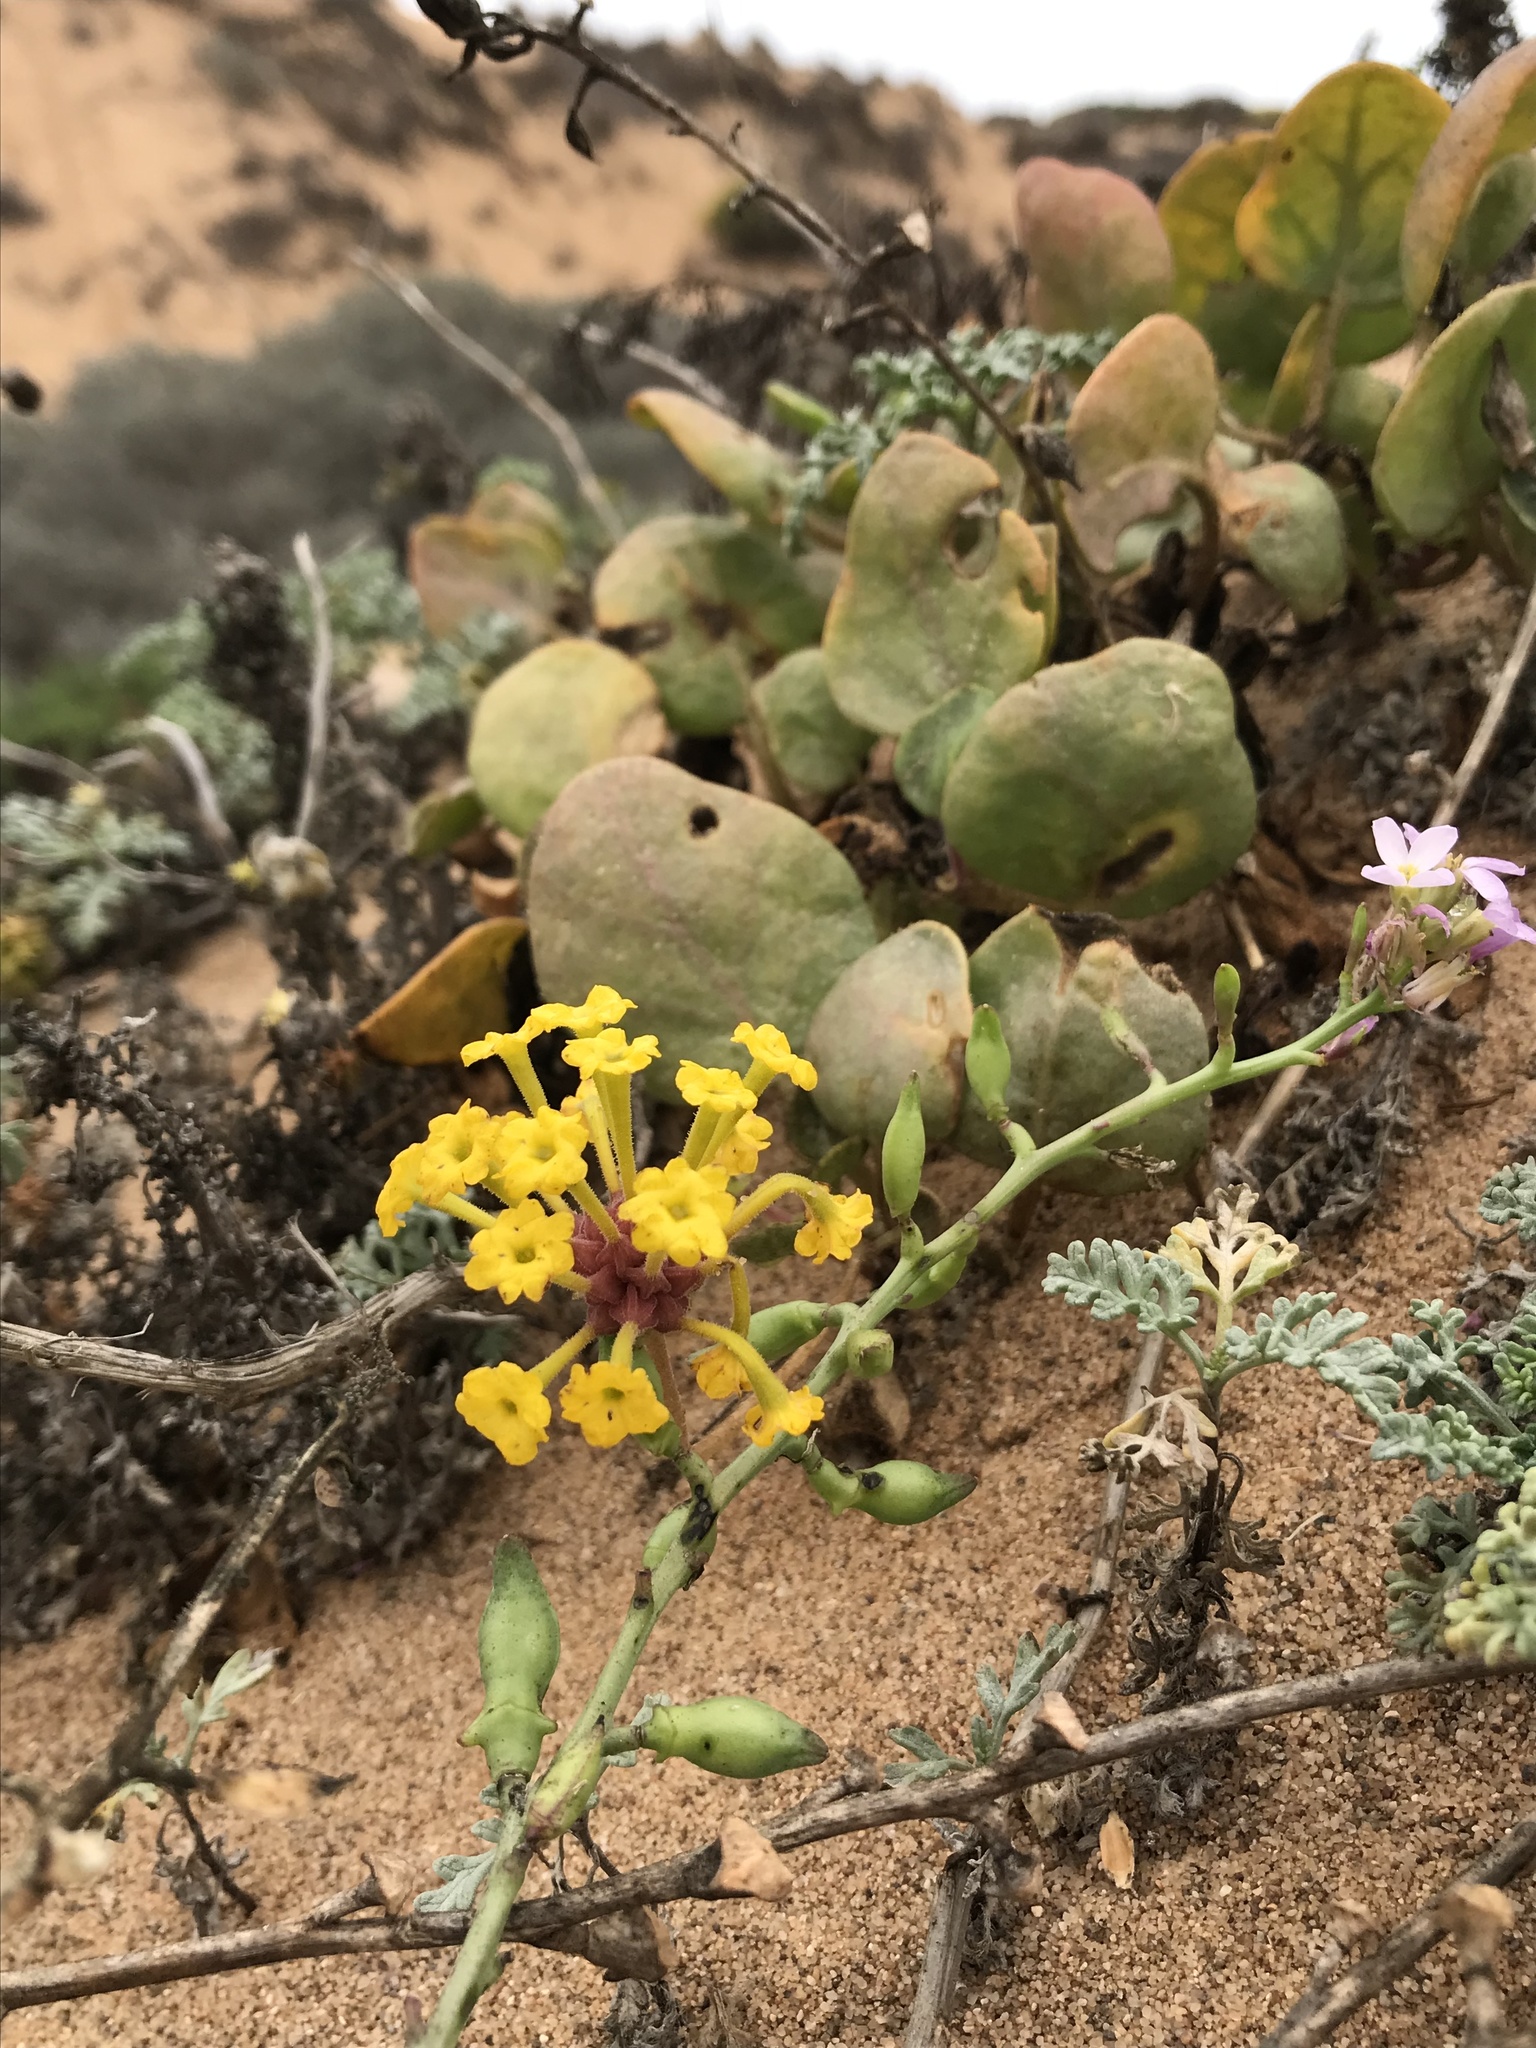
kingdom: Plantae
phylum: Tracheophyta
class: Magnoliopsida
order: Caryophyllales
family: Nyctaginaceae
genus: Abronia
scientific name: Abronia latifolia
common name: Yellow sand-verbena
